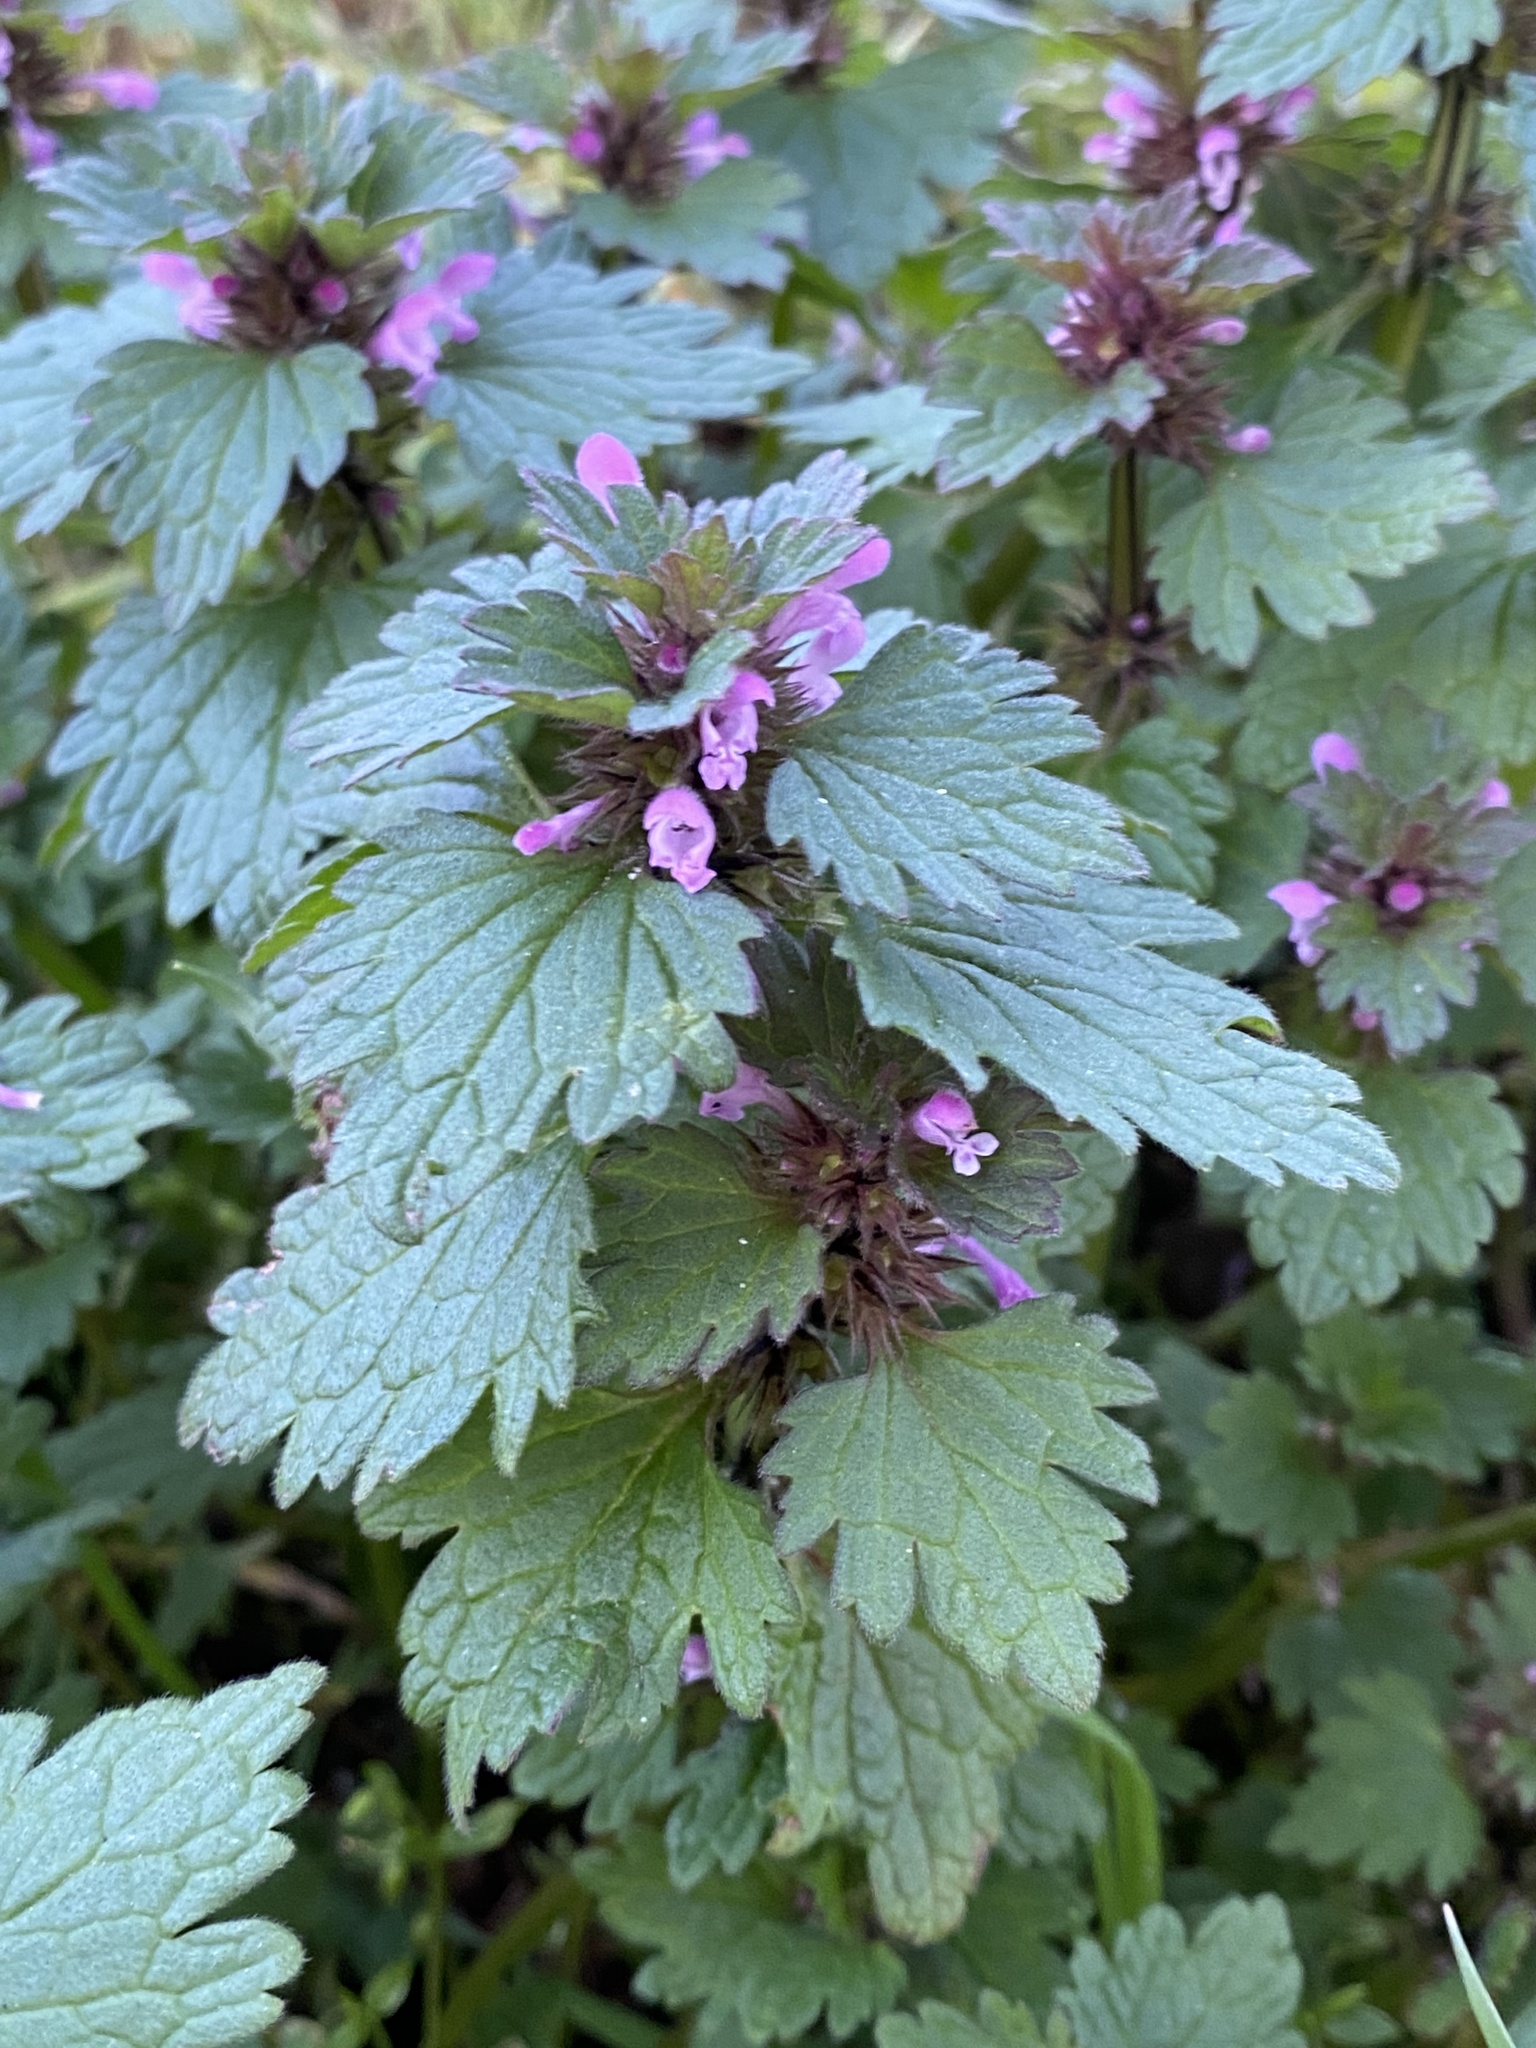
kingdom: Plantae
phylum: Tracheophyta
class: Magnoliopsida
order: Lamiales
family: Lamiaceae
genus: Lamium
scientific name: Lamium hybridum
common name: Cut-leaved dead-nettle
